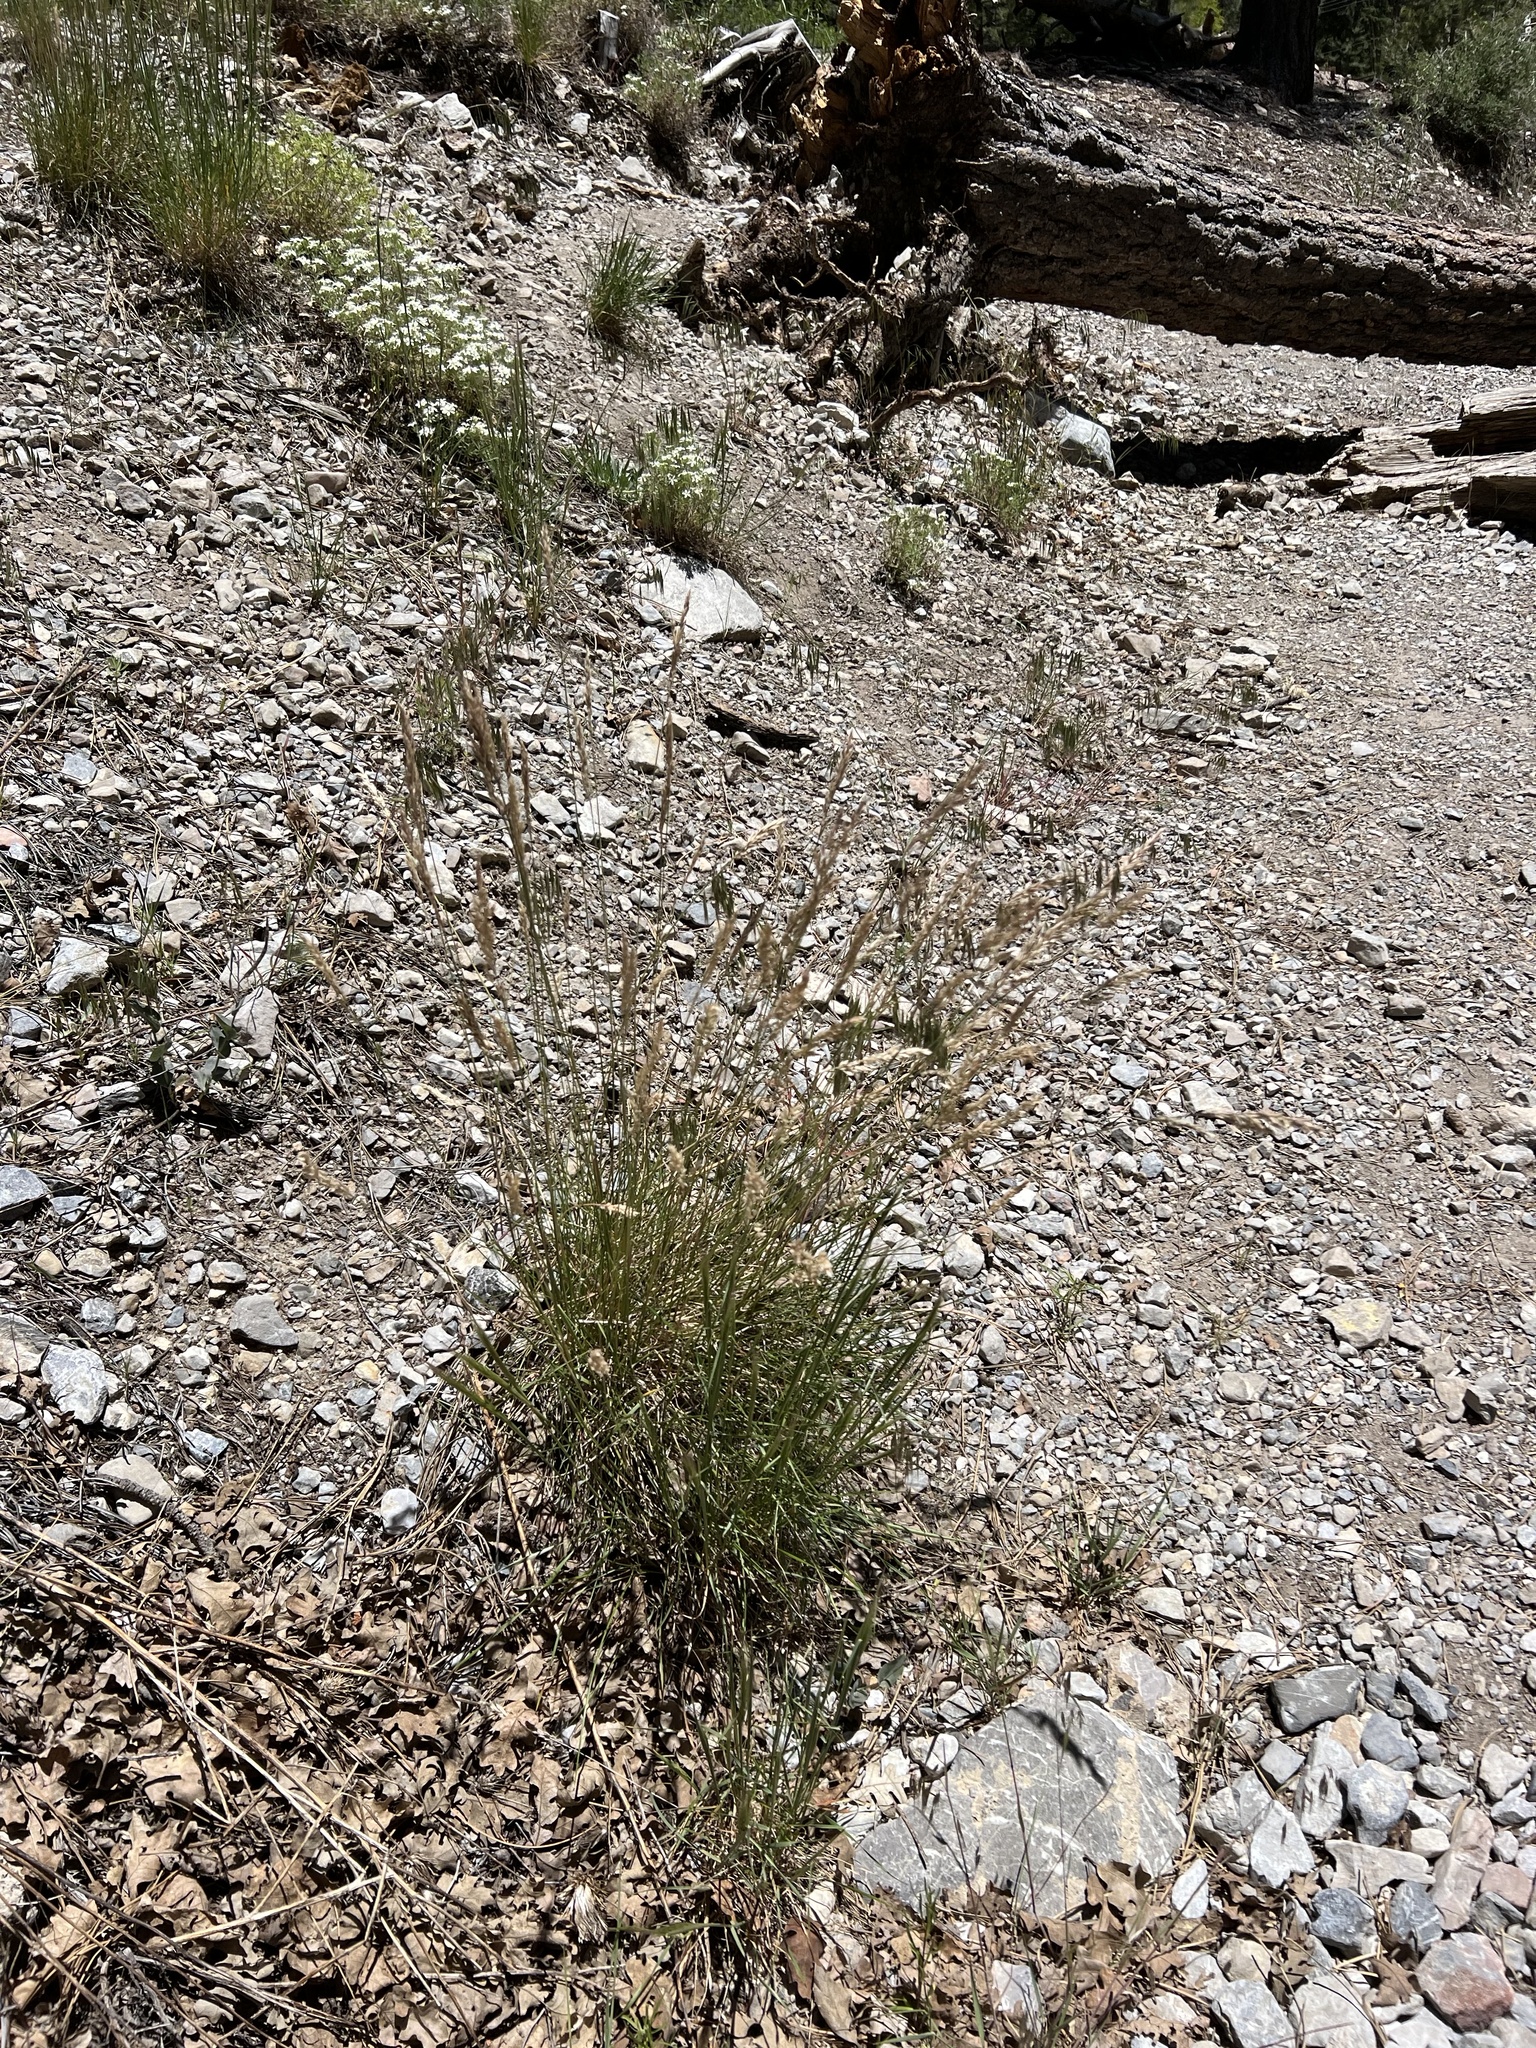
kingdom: Plantae
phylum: Tracheophyta
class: Liliopsida
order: Poales
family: Poaceae
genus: Poa
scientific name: Poa secunda
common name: Sandberg bluegrass
